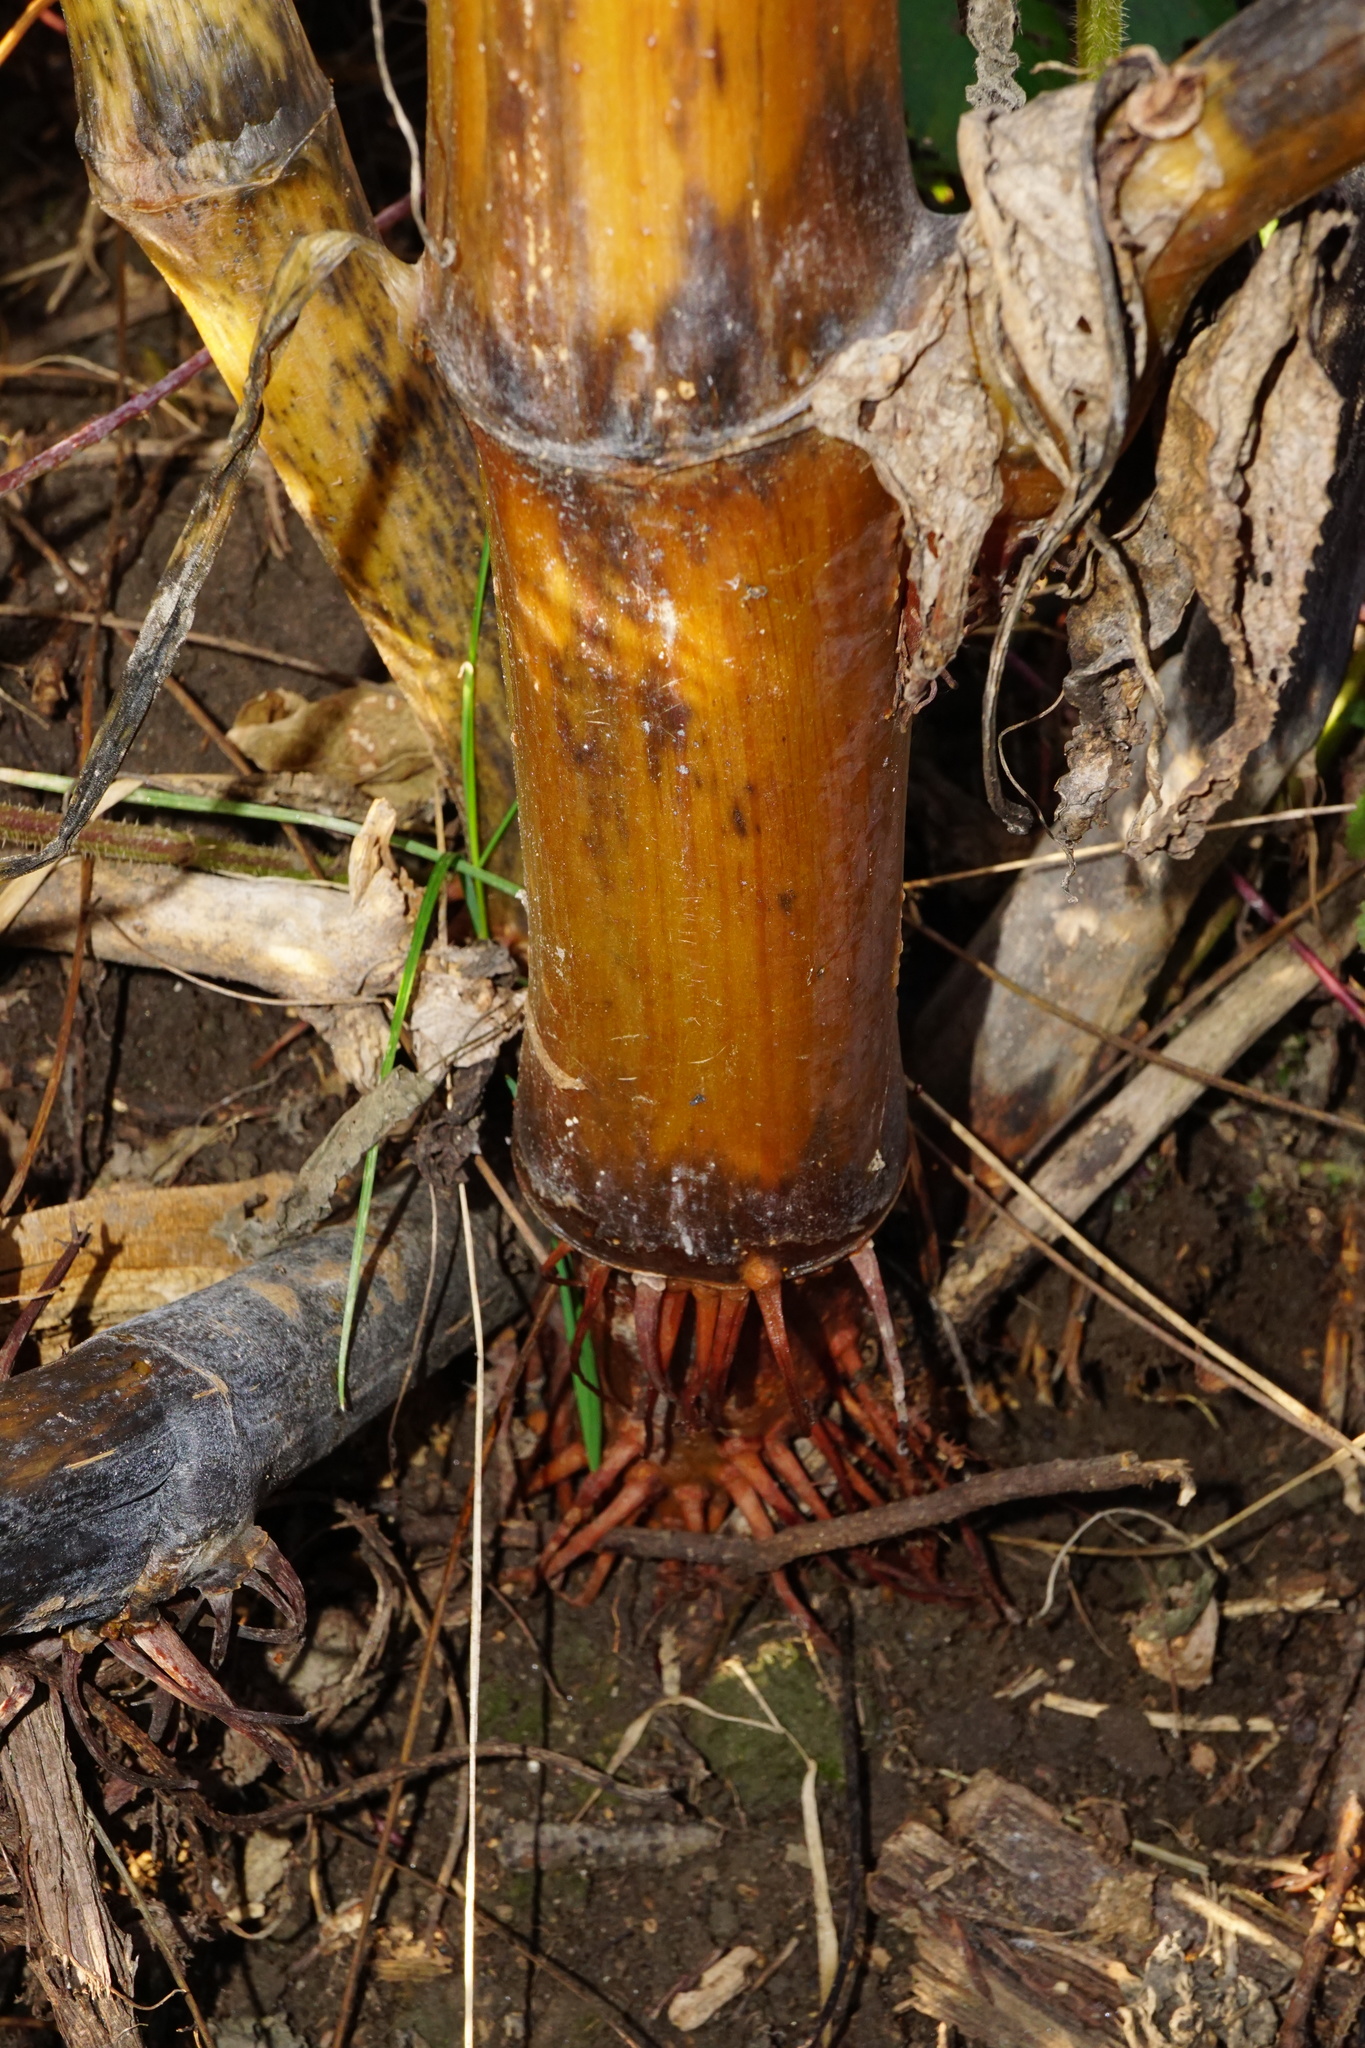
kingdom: Plantae
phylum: Tracheophyta
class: Magnoliopsida
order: Ericales
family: Balsaminaceae
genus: Impatiens
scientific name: Impatiens glandulifera
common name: Himalayan balsam
